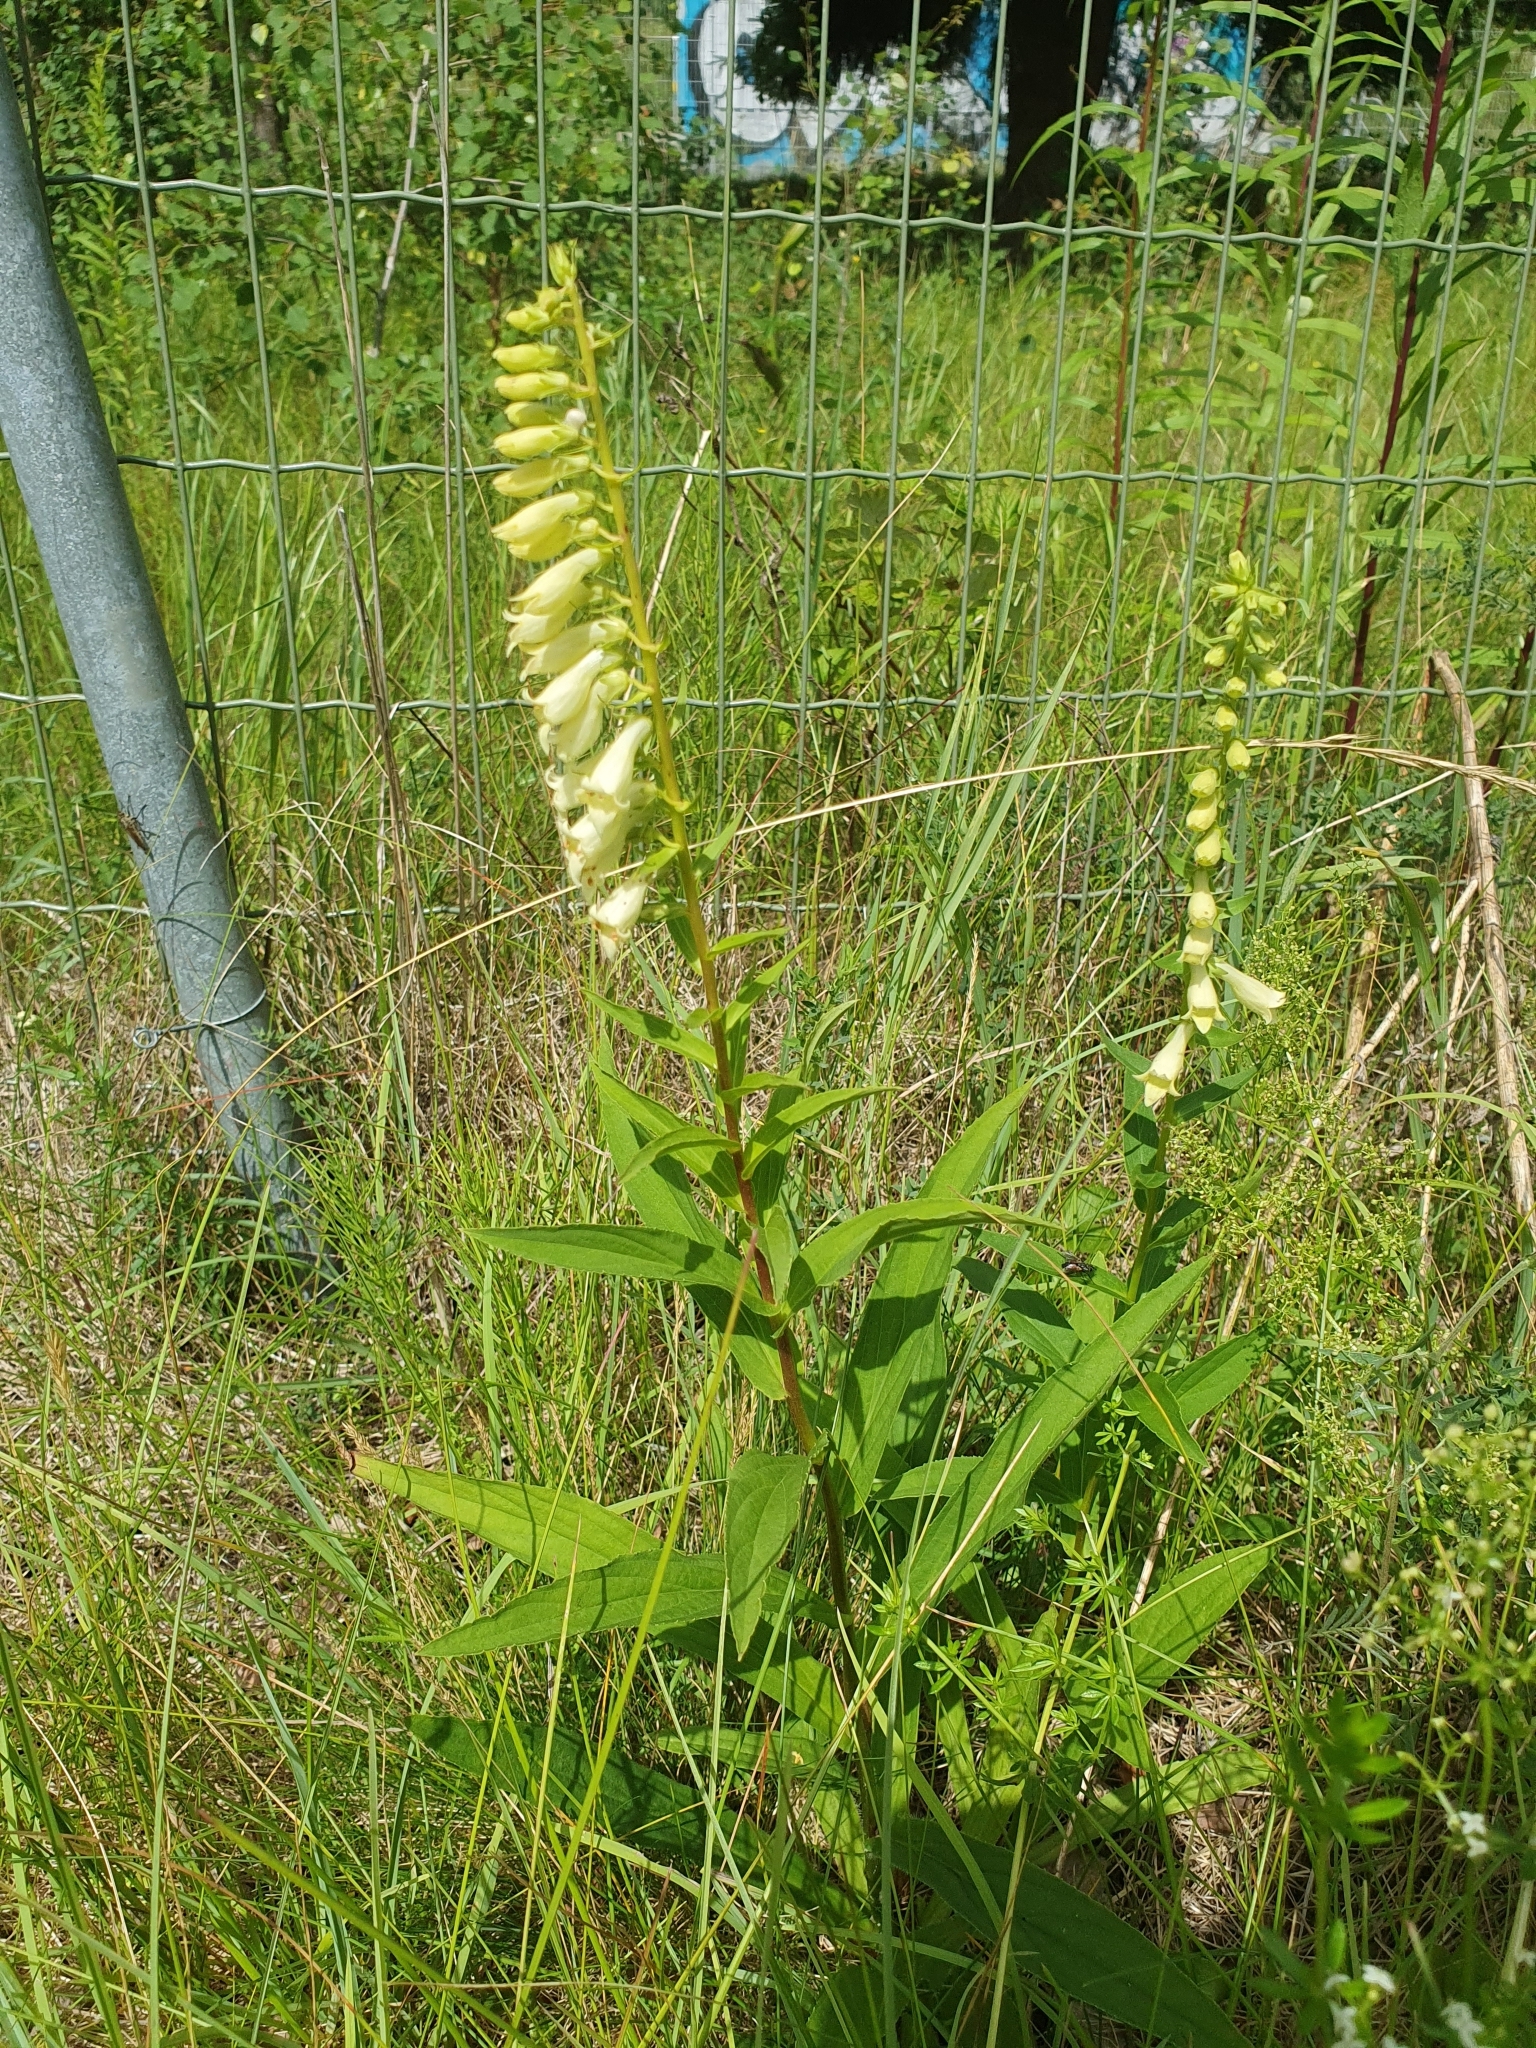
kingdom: Plantae
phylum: Tracheophyta
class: Magnoliopsida
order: Lamiales
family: Plantaginaceae
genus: Digitalis
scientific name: Digitalis lutea
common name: Straw foxglove
